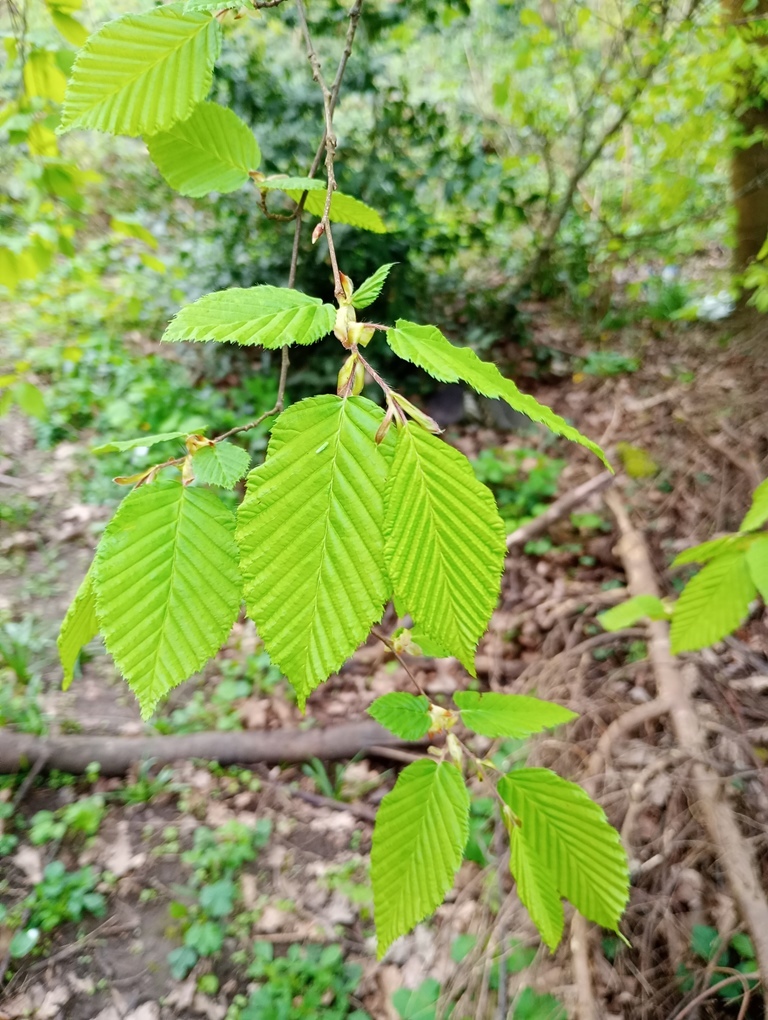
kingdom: Plantae
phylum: Tracheophyta
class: Magnoliopsida
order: Fagales
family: Betulaceae
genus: Carpinus
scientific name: Carpinus betulus
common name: Hornbeam
